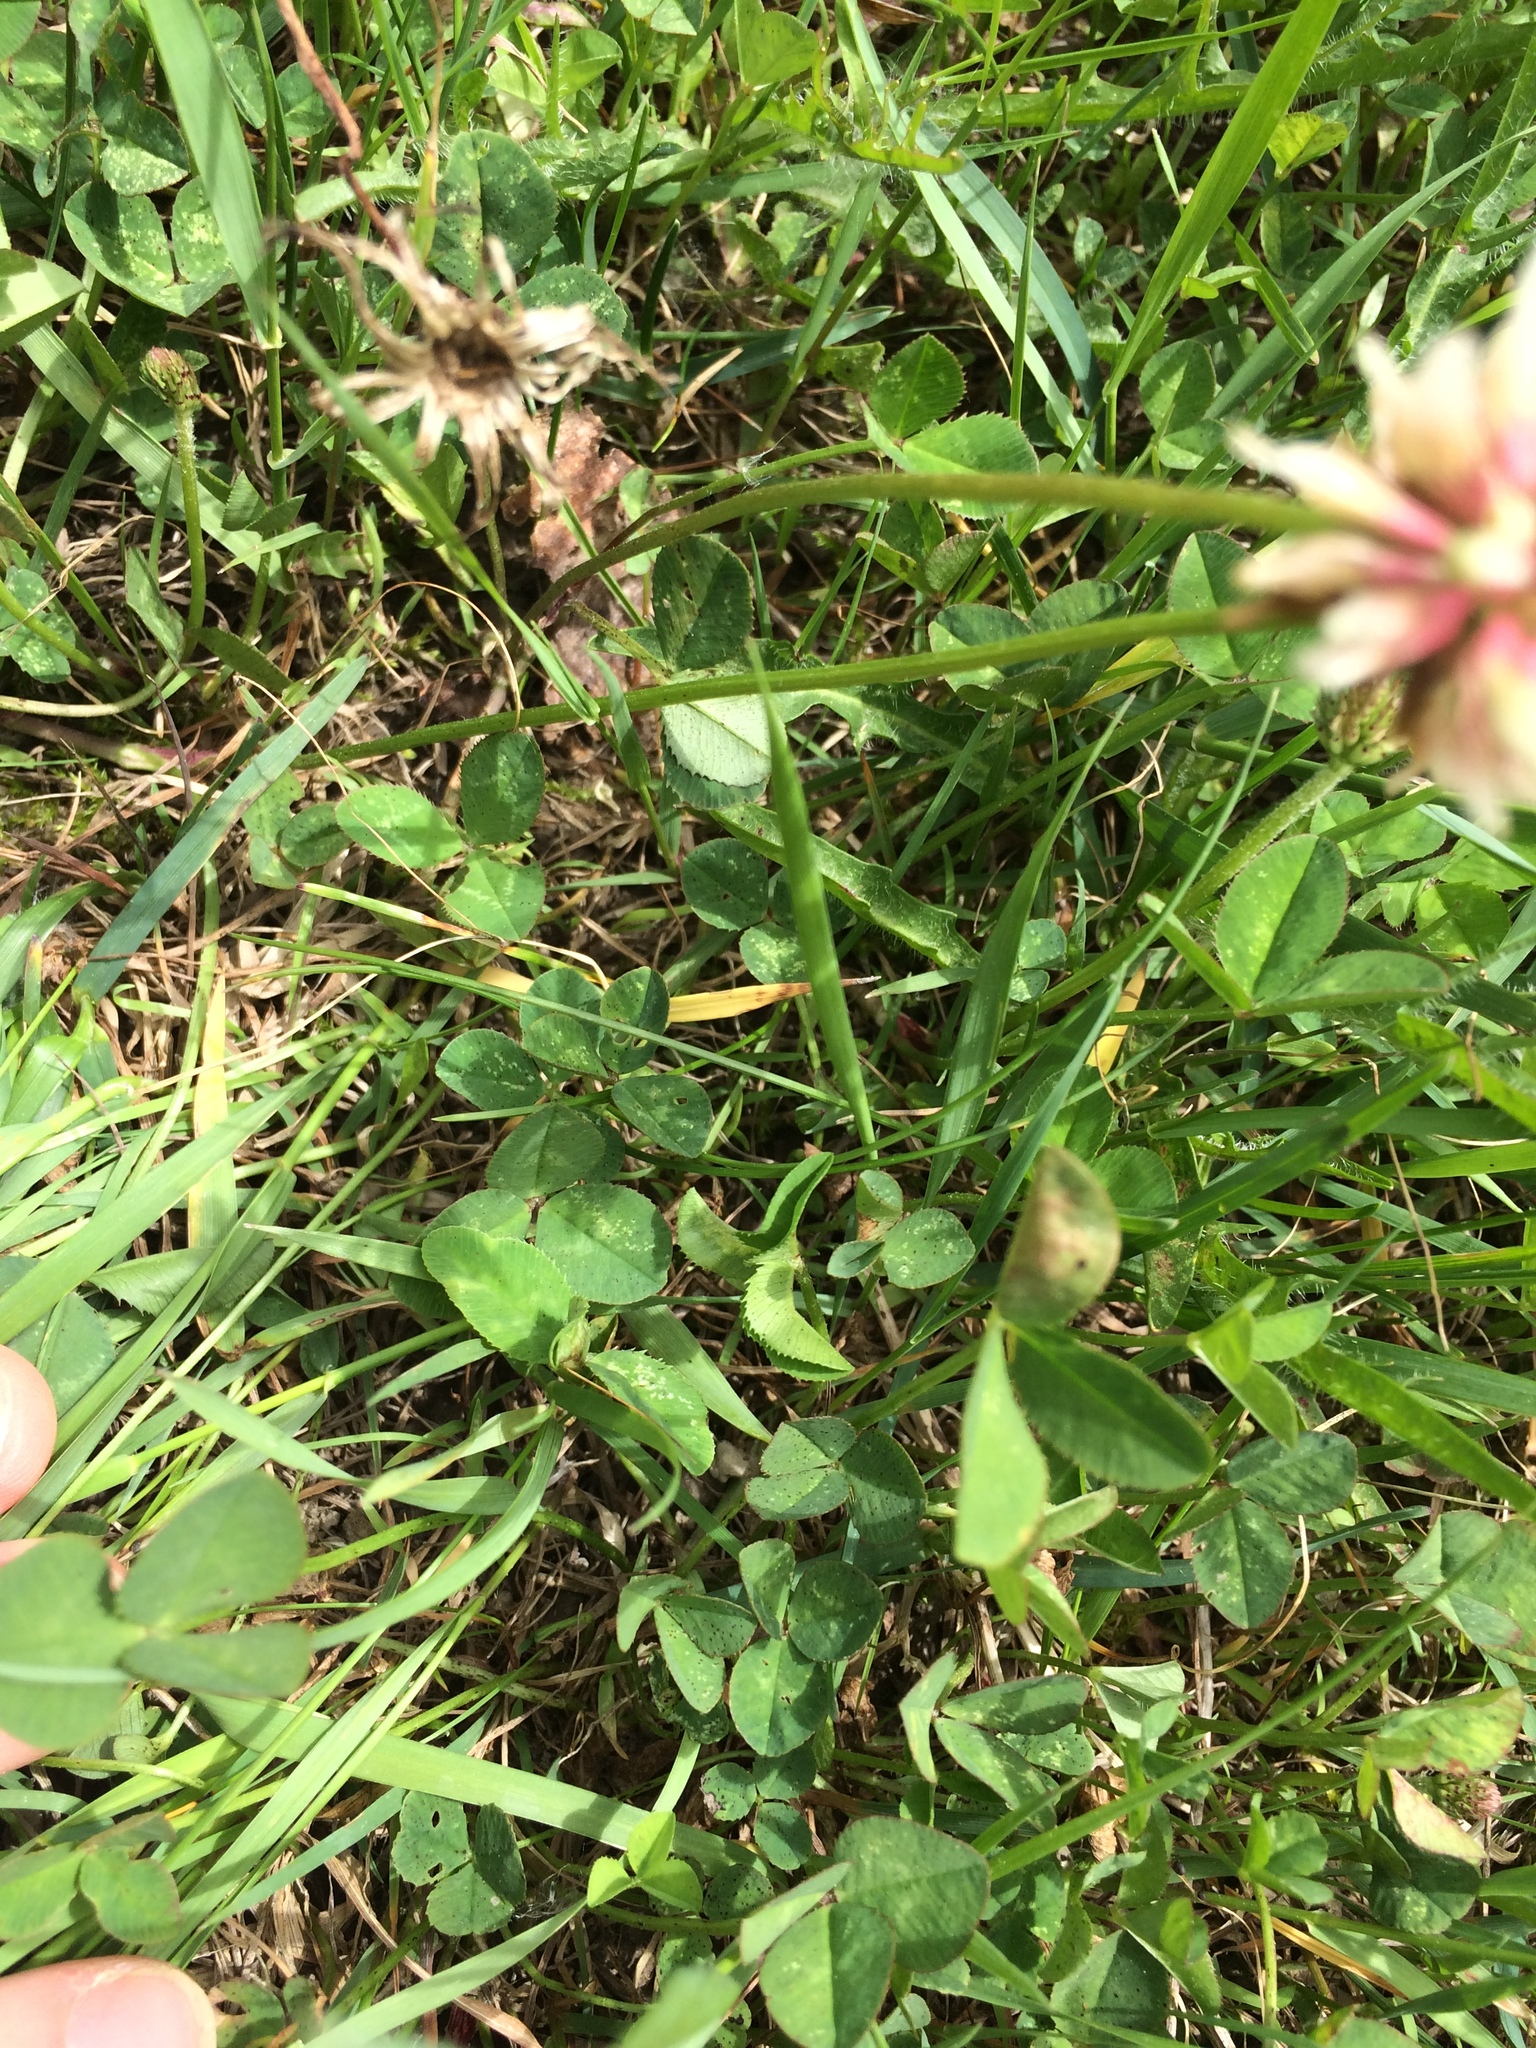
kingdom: Plantae
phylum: Tracheophyta
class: Magnoliopsida
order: Fabales
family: Fabaceae
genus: Trifolium
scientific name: Trifolium repens
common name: White clover
